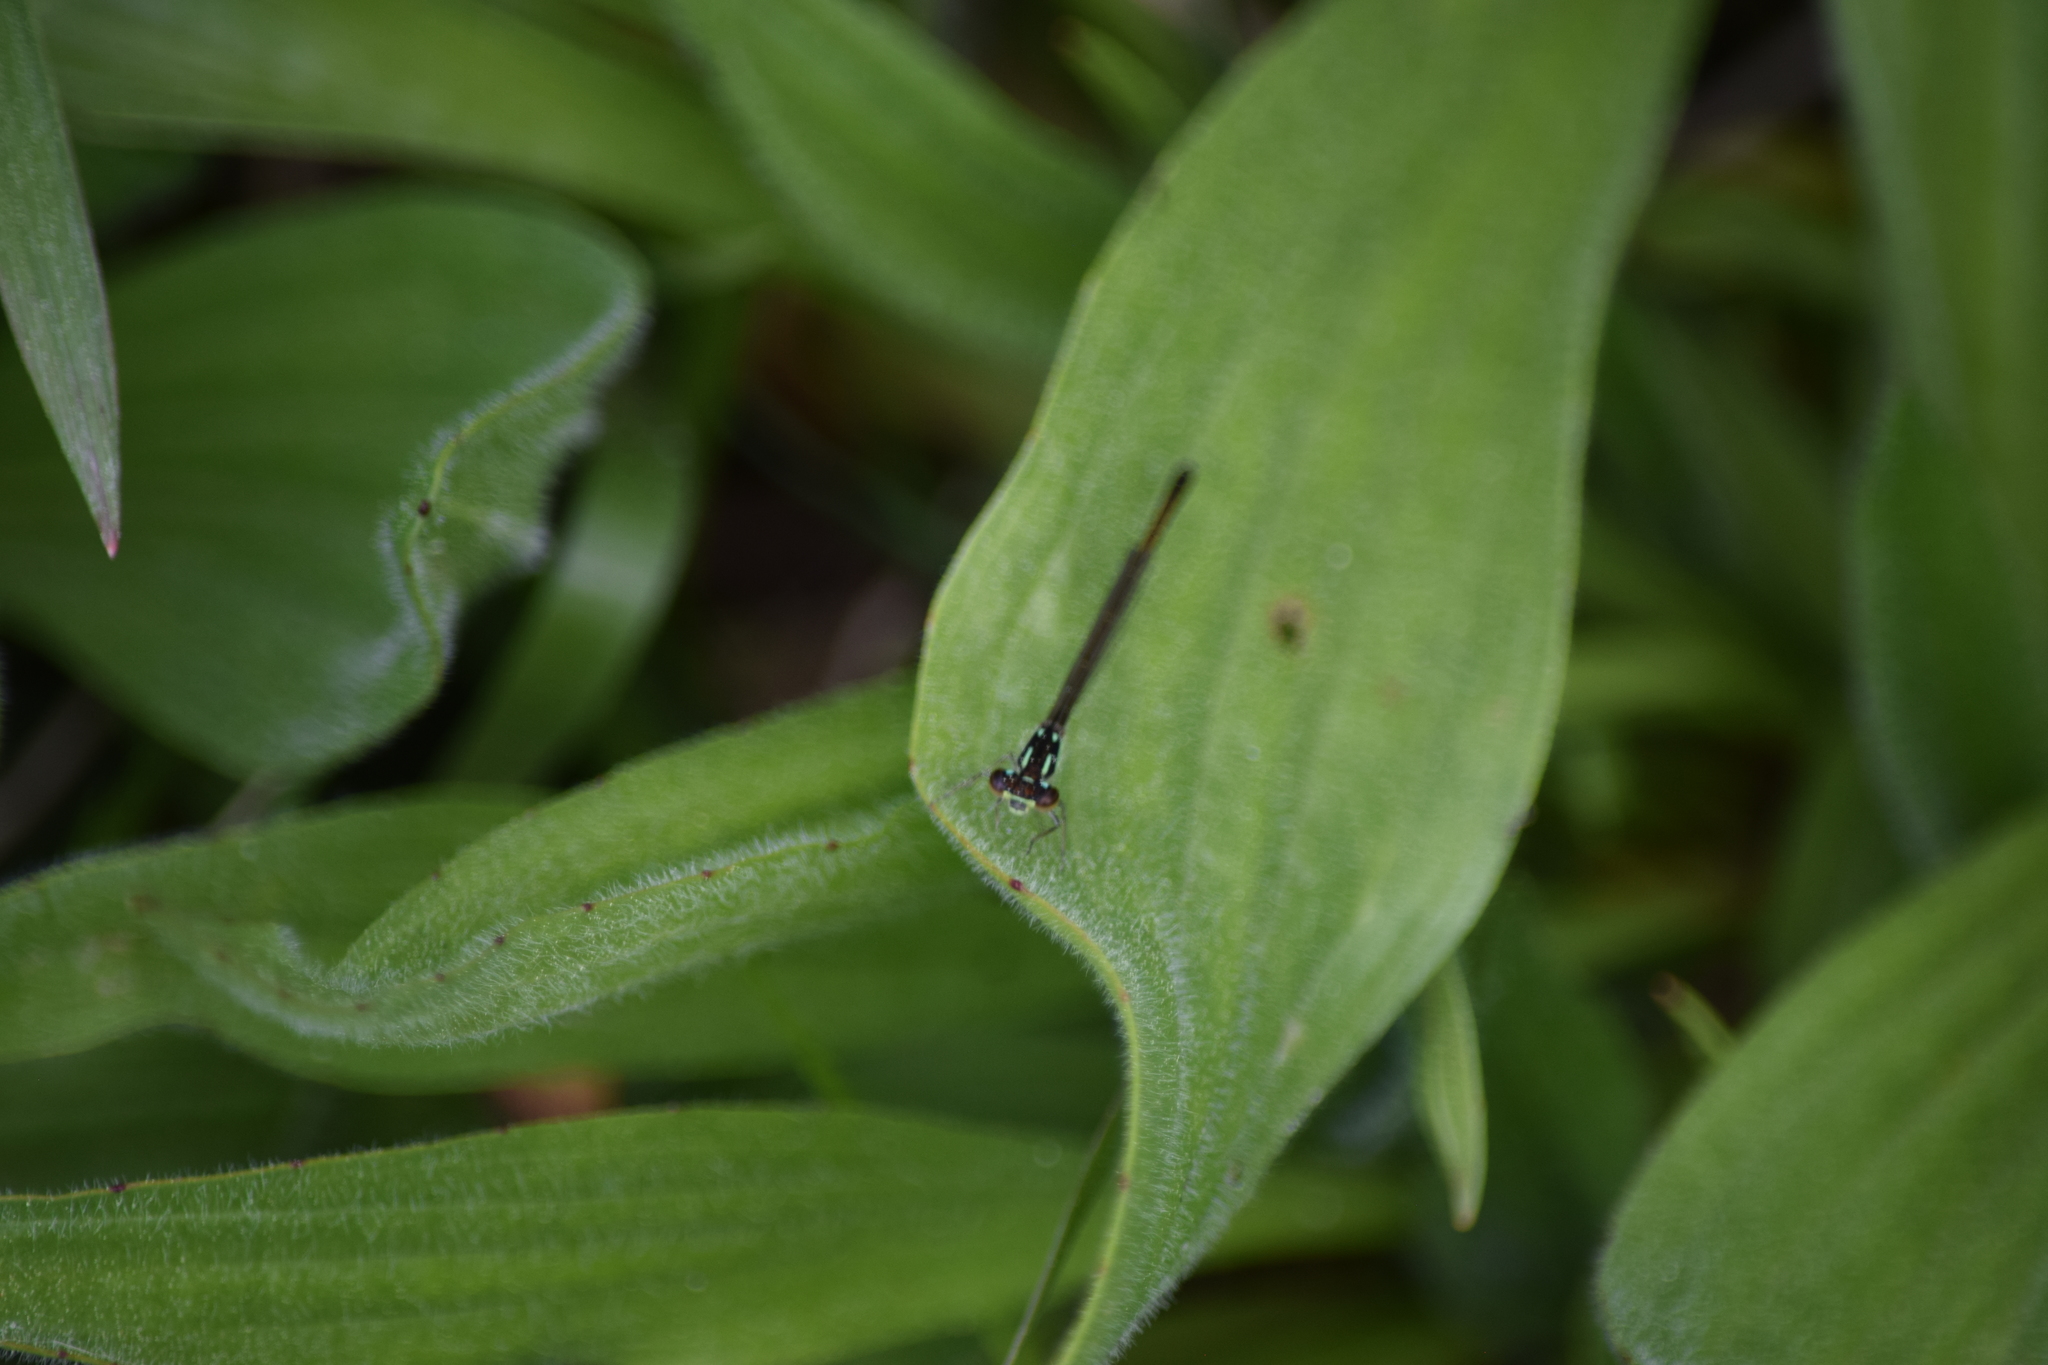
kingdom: Animalia
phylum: Arthropoda
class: Insecta
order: Odonata
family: Coenagrionidae
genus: Ischnura
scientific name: Ischnura posita
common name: Fragile forktail
